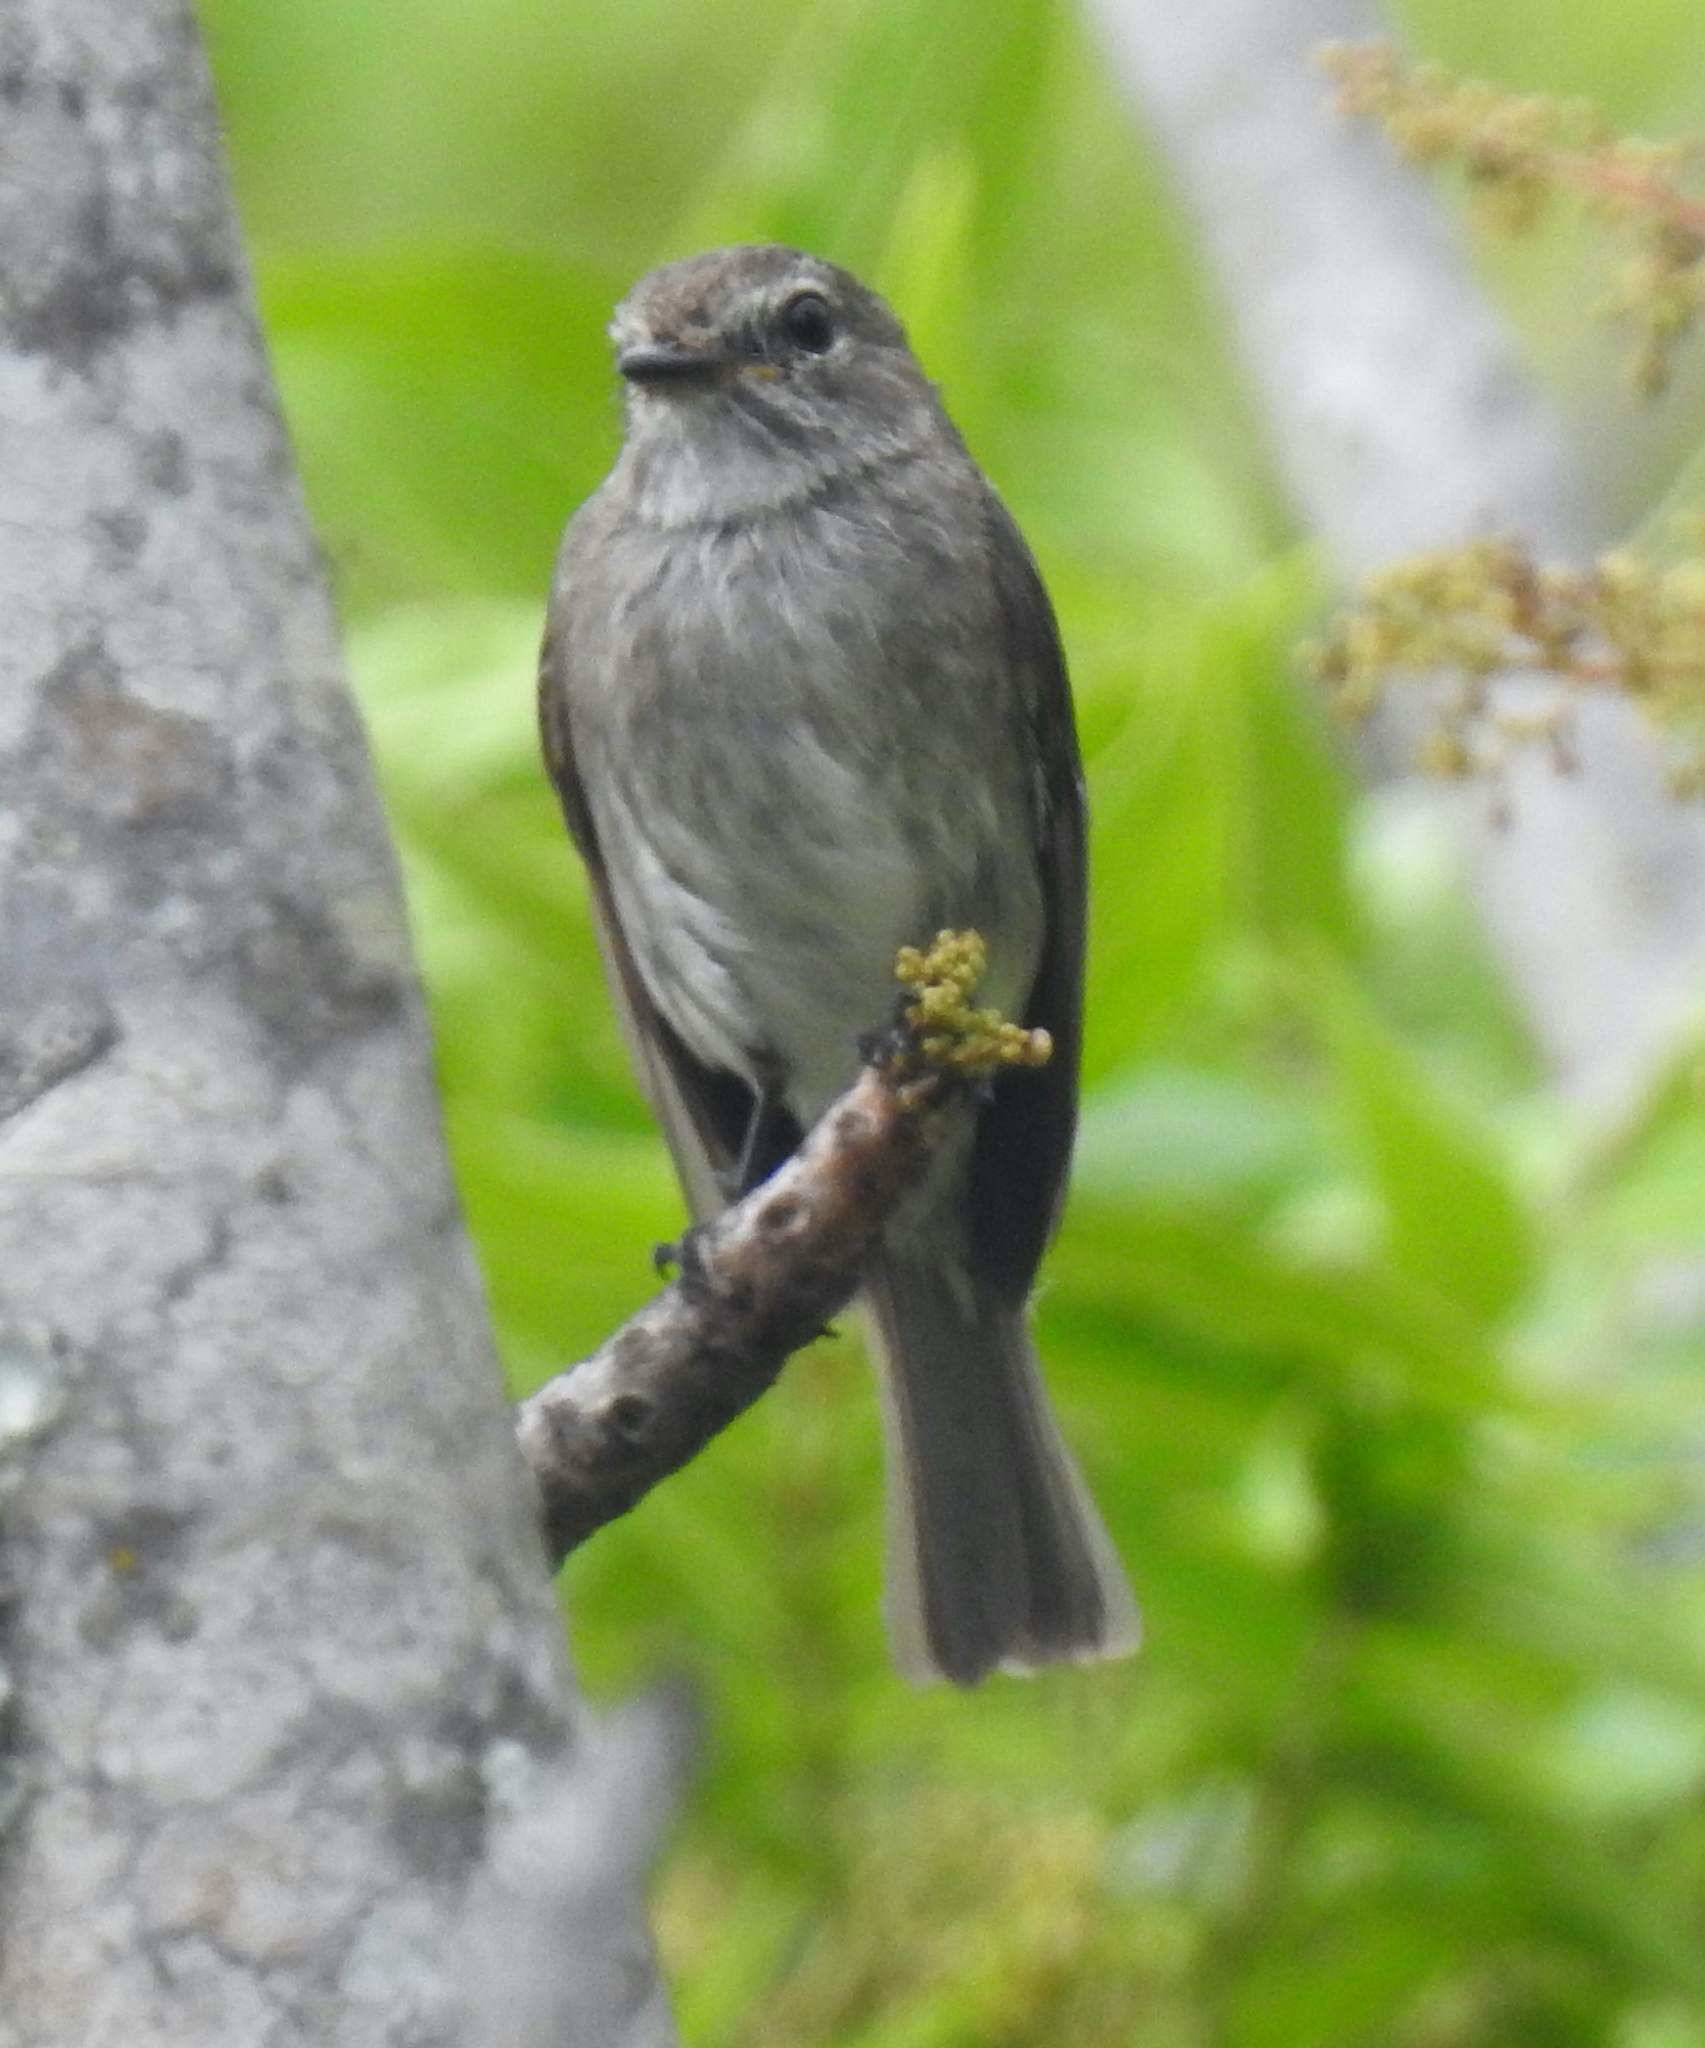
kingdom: Animalia
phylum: Chordata
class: Aves
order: Passeriformes
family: Muscicapidae
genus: Muscicapa
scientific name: Muscicapa adusta
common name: African dusky flycatcher
